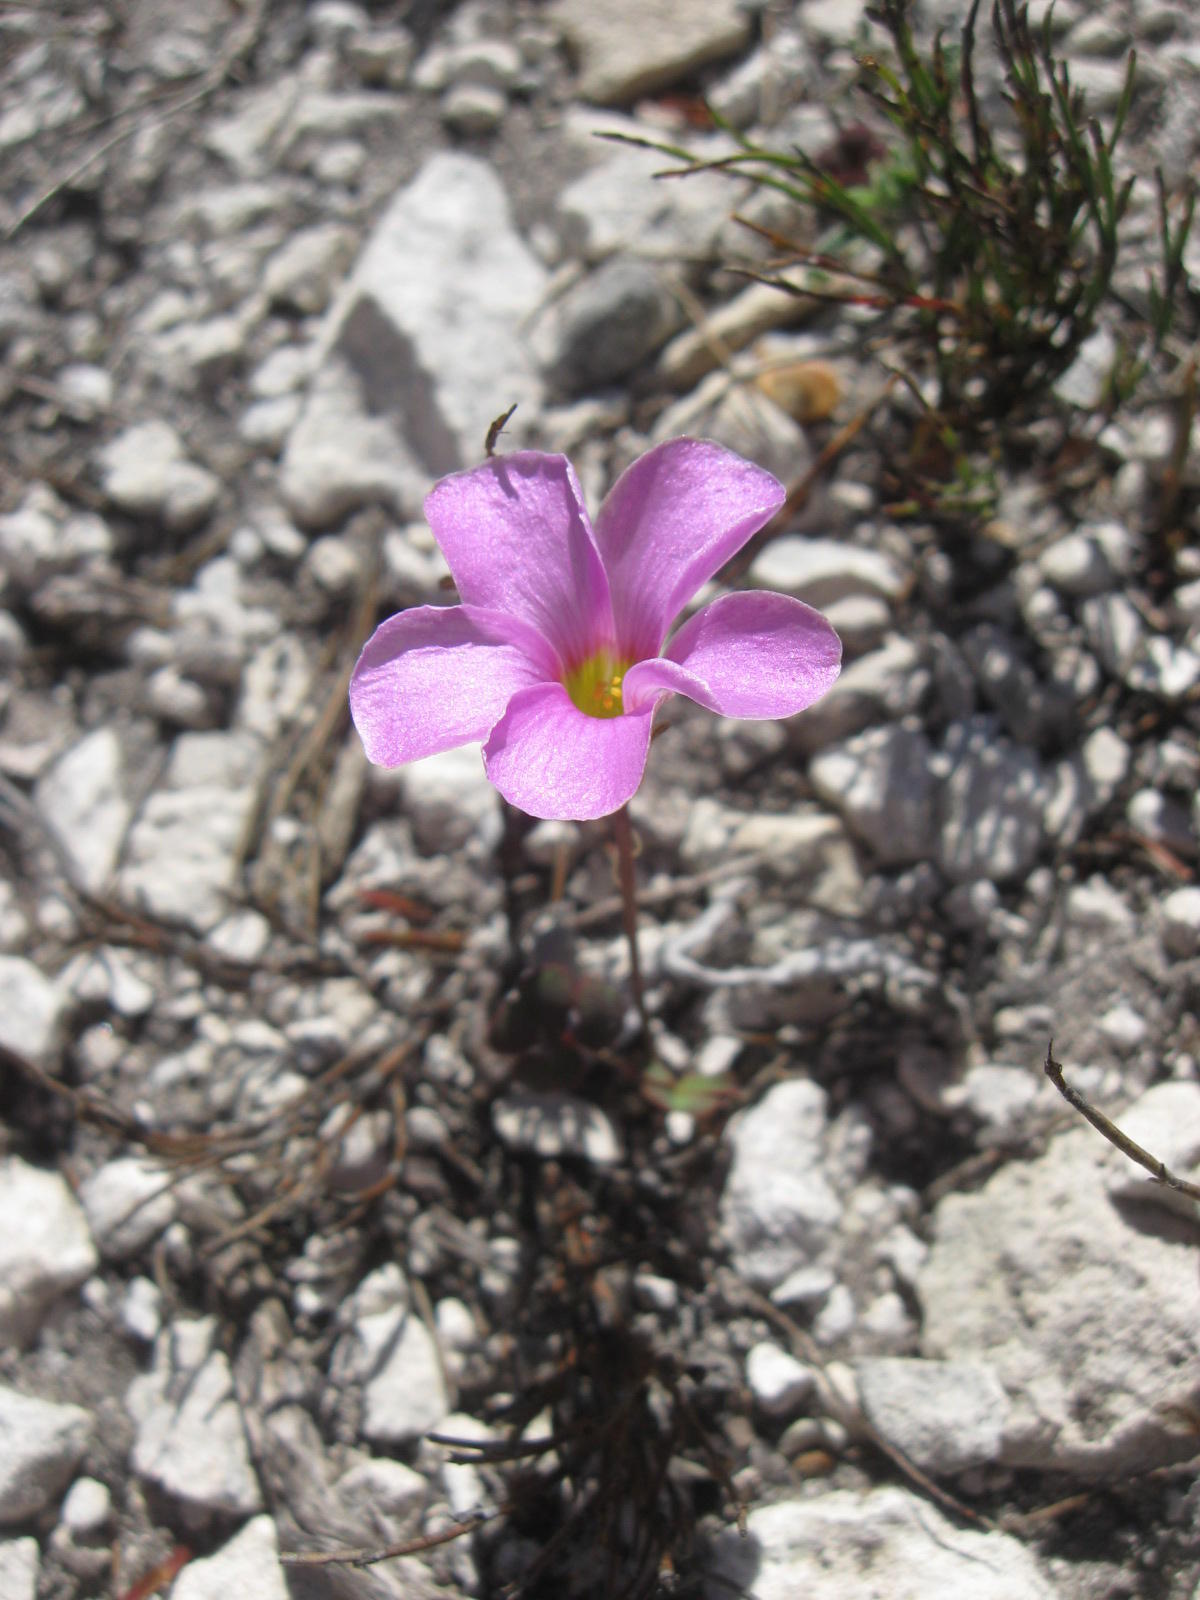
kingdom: Plantae
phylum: Tracheophyta
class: Magnoliopsida
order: Oxalidales
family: Oxalidaceae
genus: Oxalis
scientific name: Oxalis depressa
